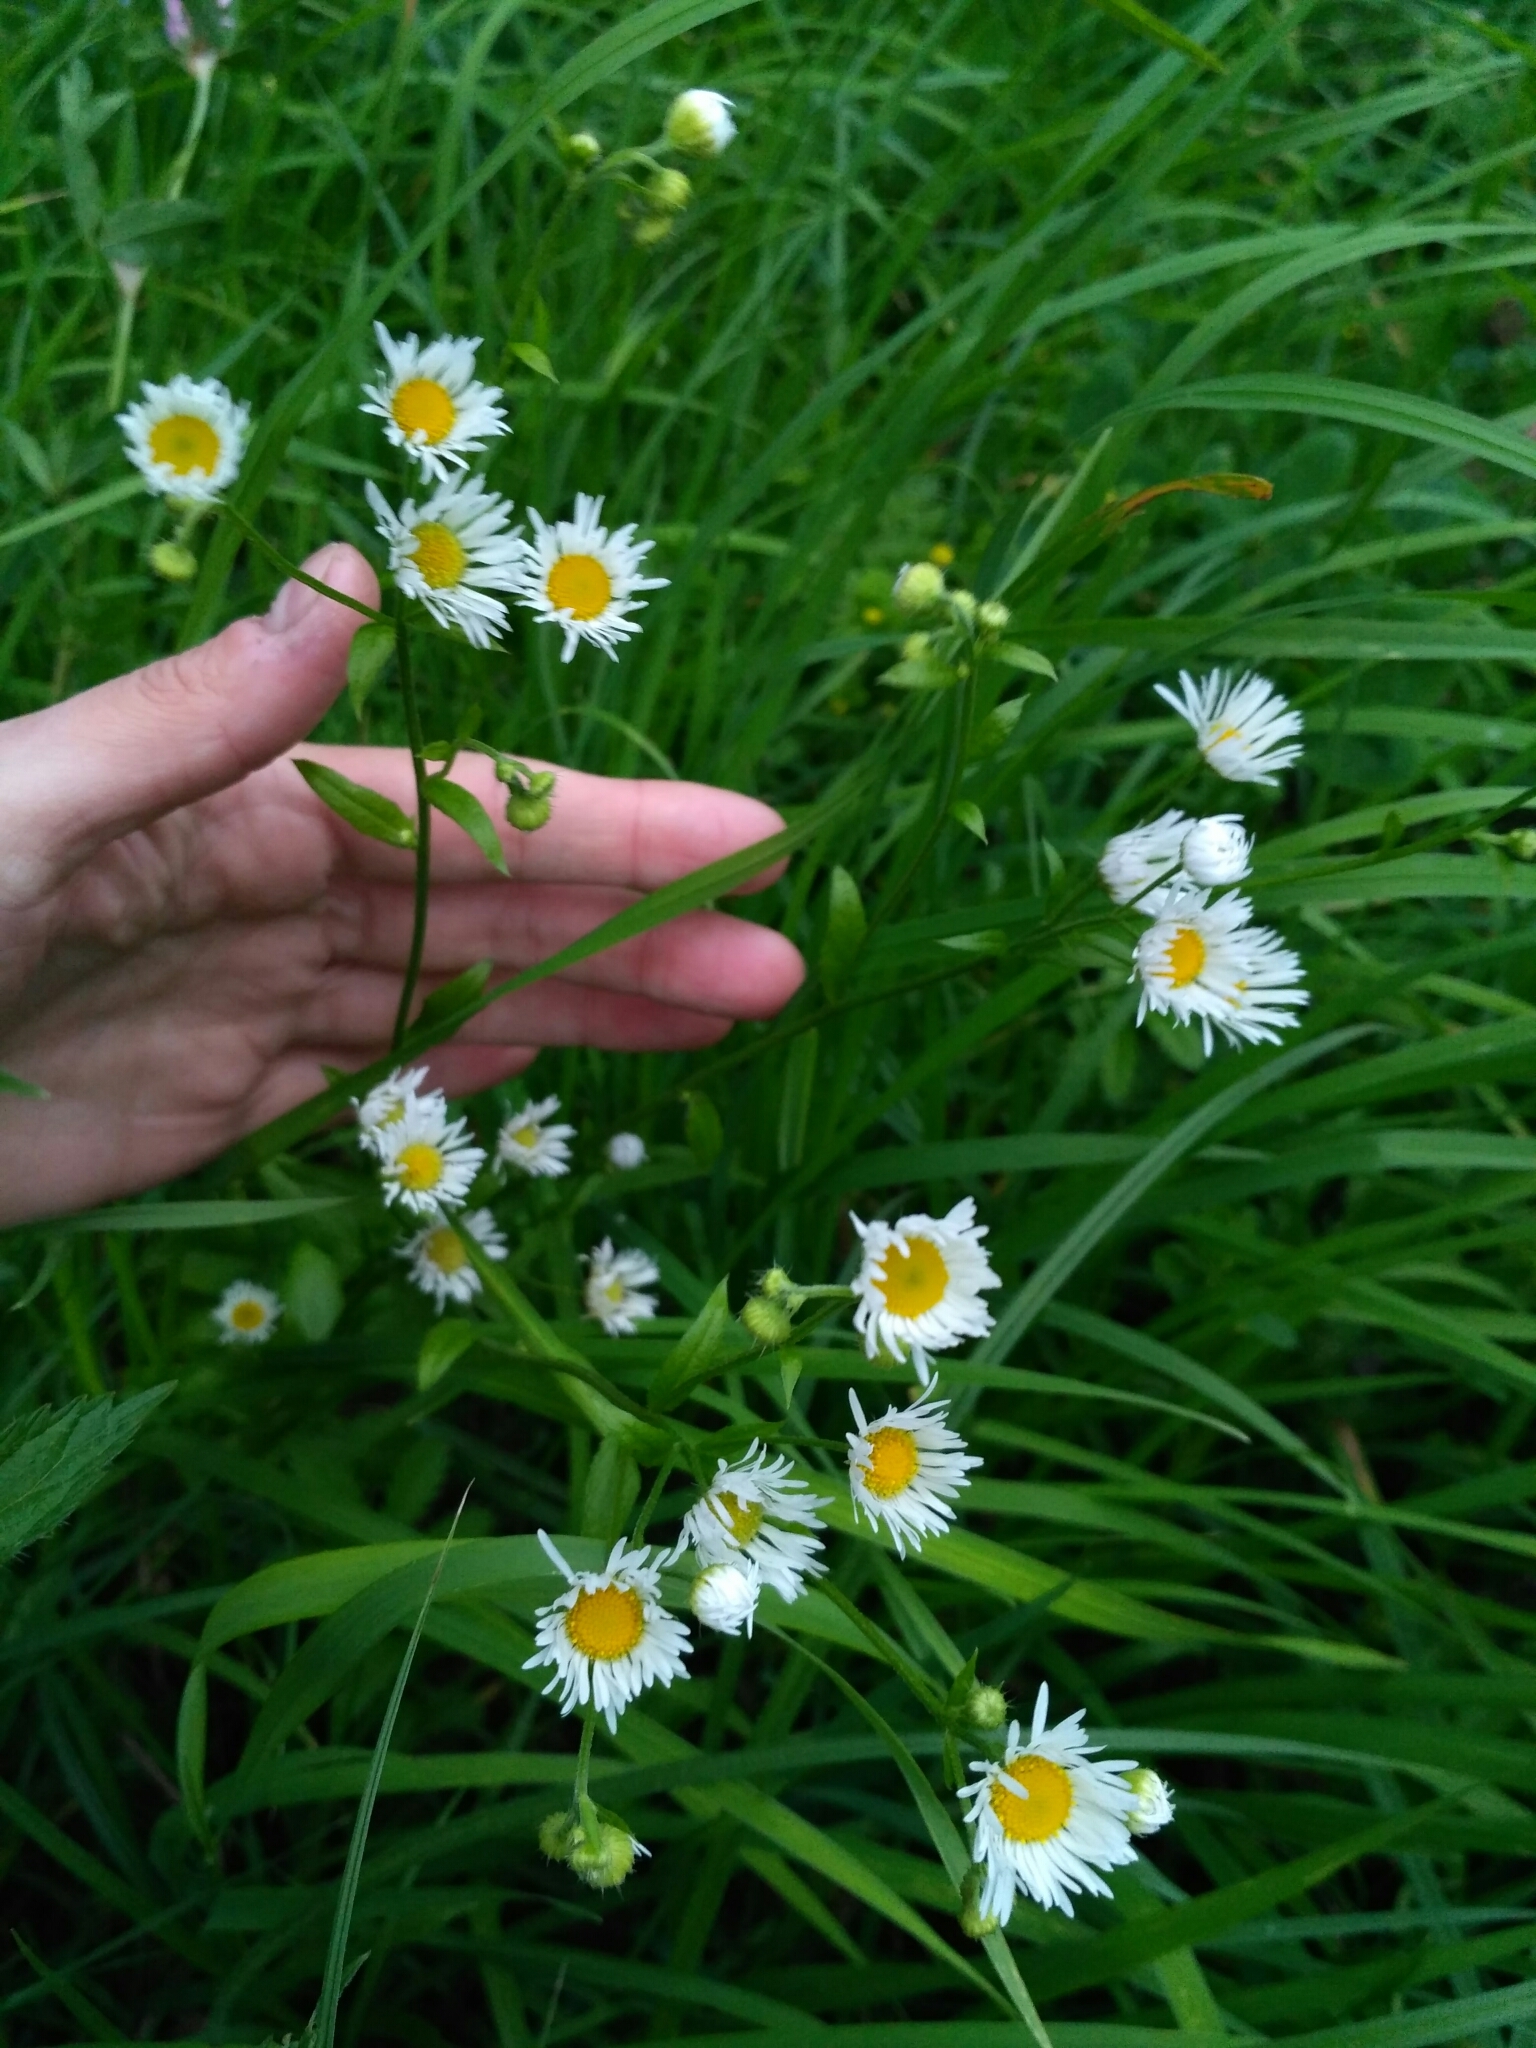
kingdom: Plantae
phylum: Tracheophyta
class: Magnoliopsida
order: Asterales
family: Asteraceae
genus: Erigeron
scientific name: Erigeron annuus
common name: Tall fleabane
